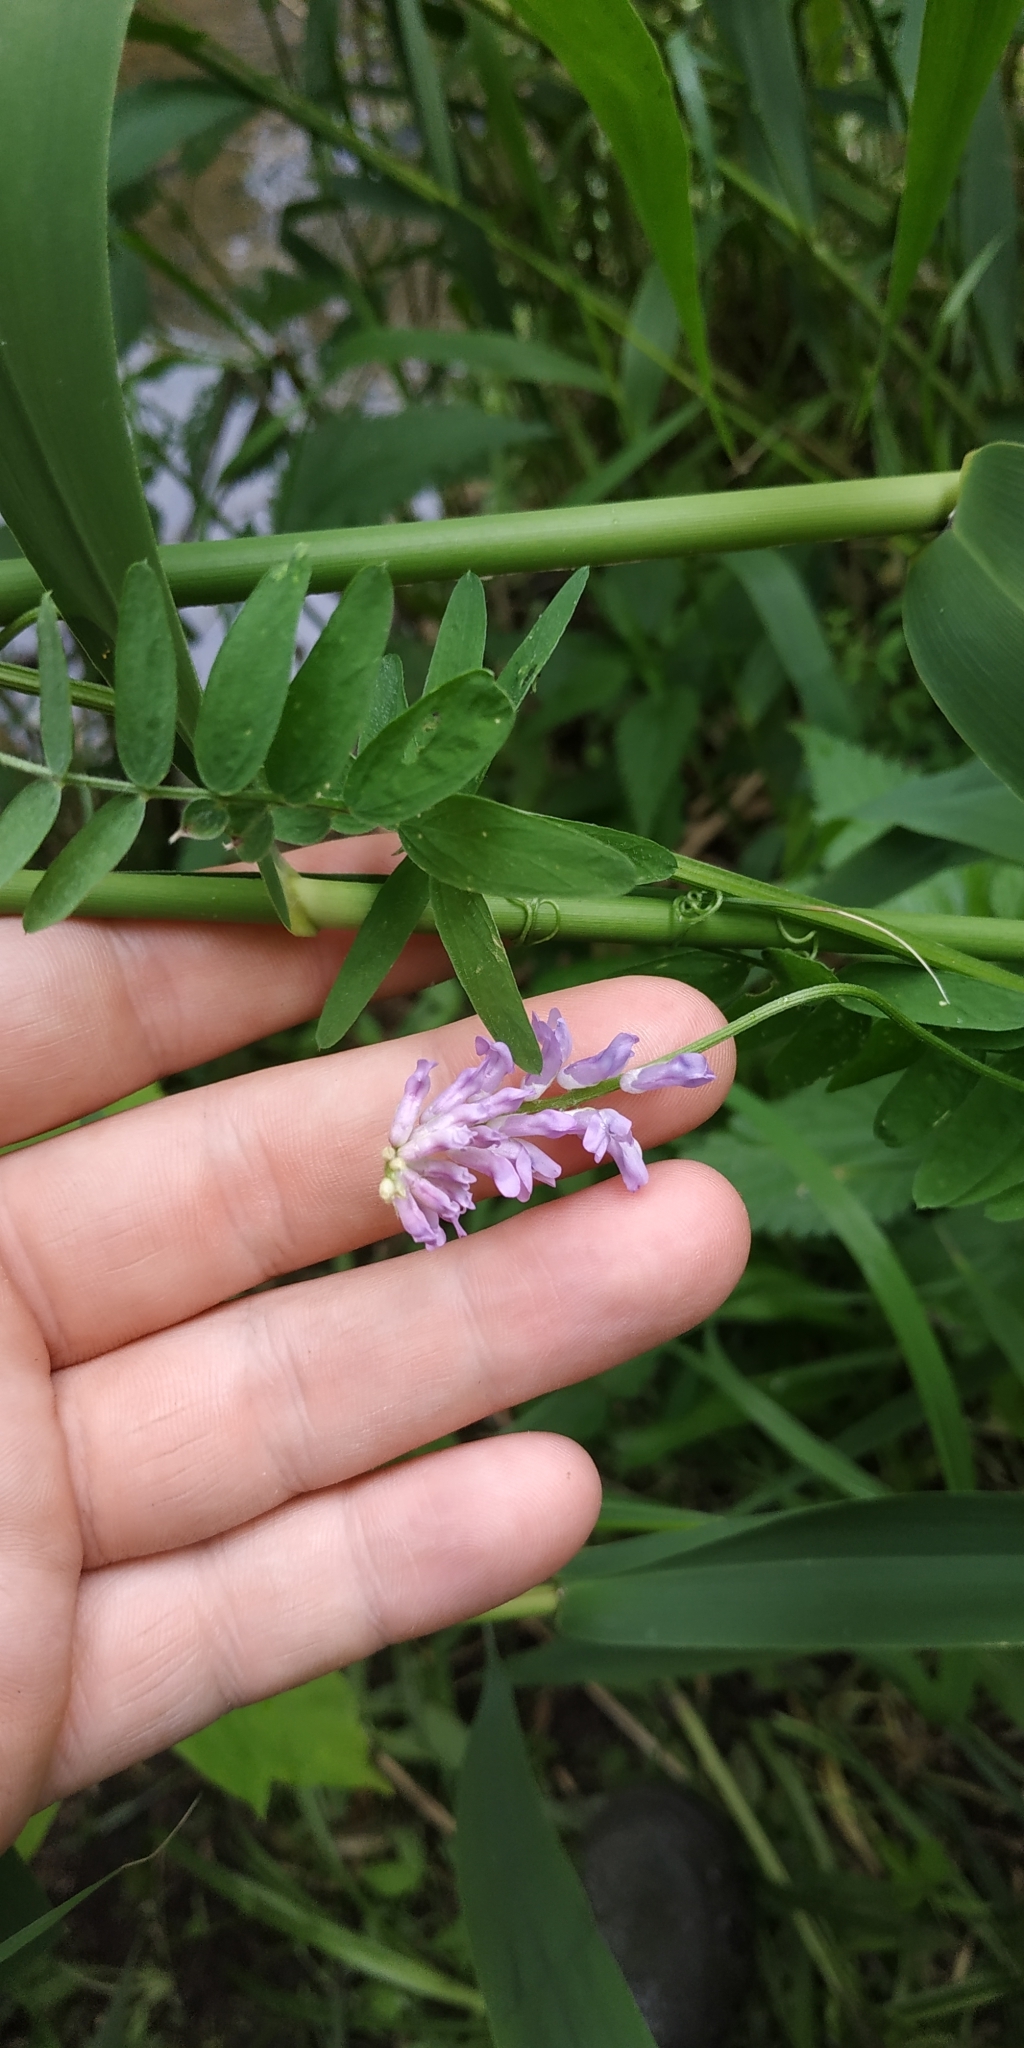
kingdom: Plantae
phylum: Tracheophyta
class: Magnoliopsida
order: Fabales
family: Fabaceae
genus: Vicia
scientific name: Vicia cracca
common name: Bird vetch
